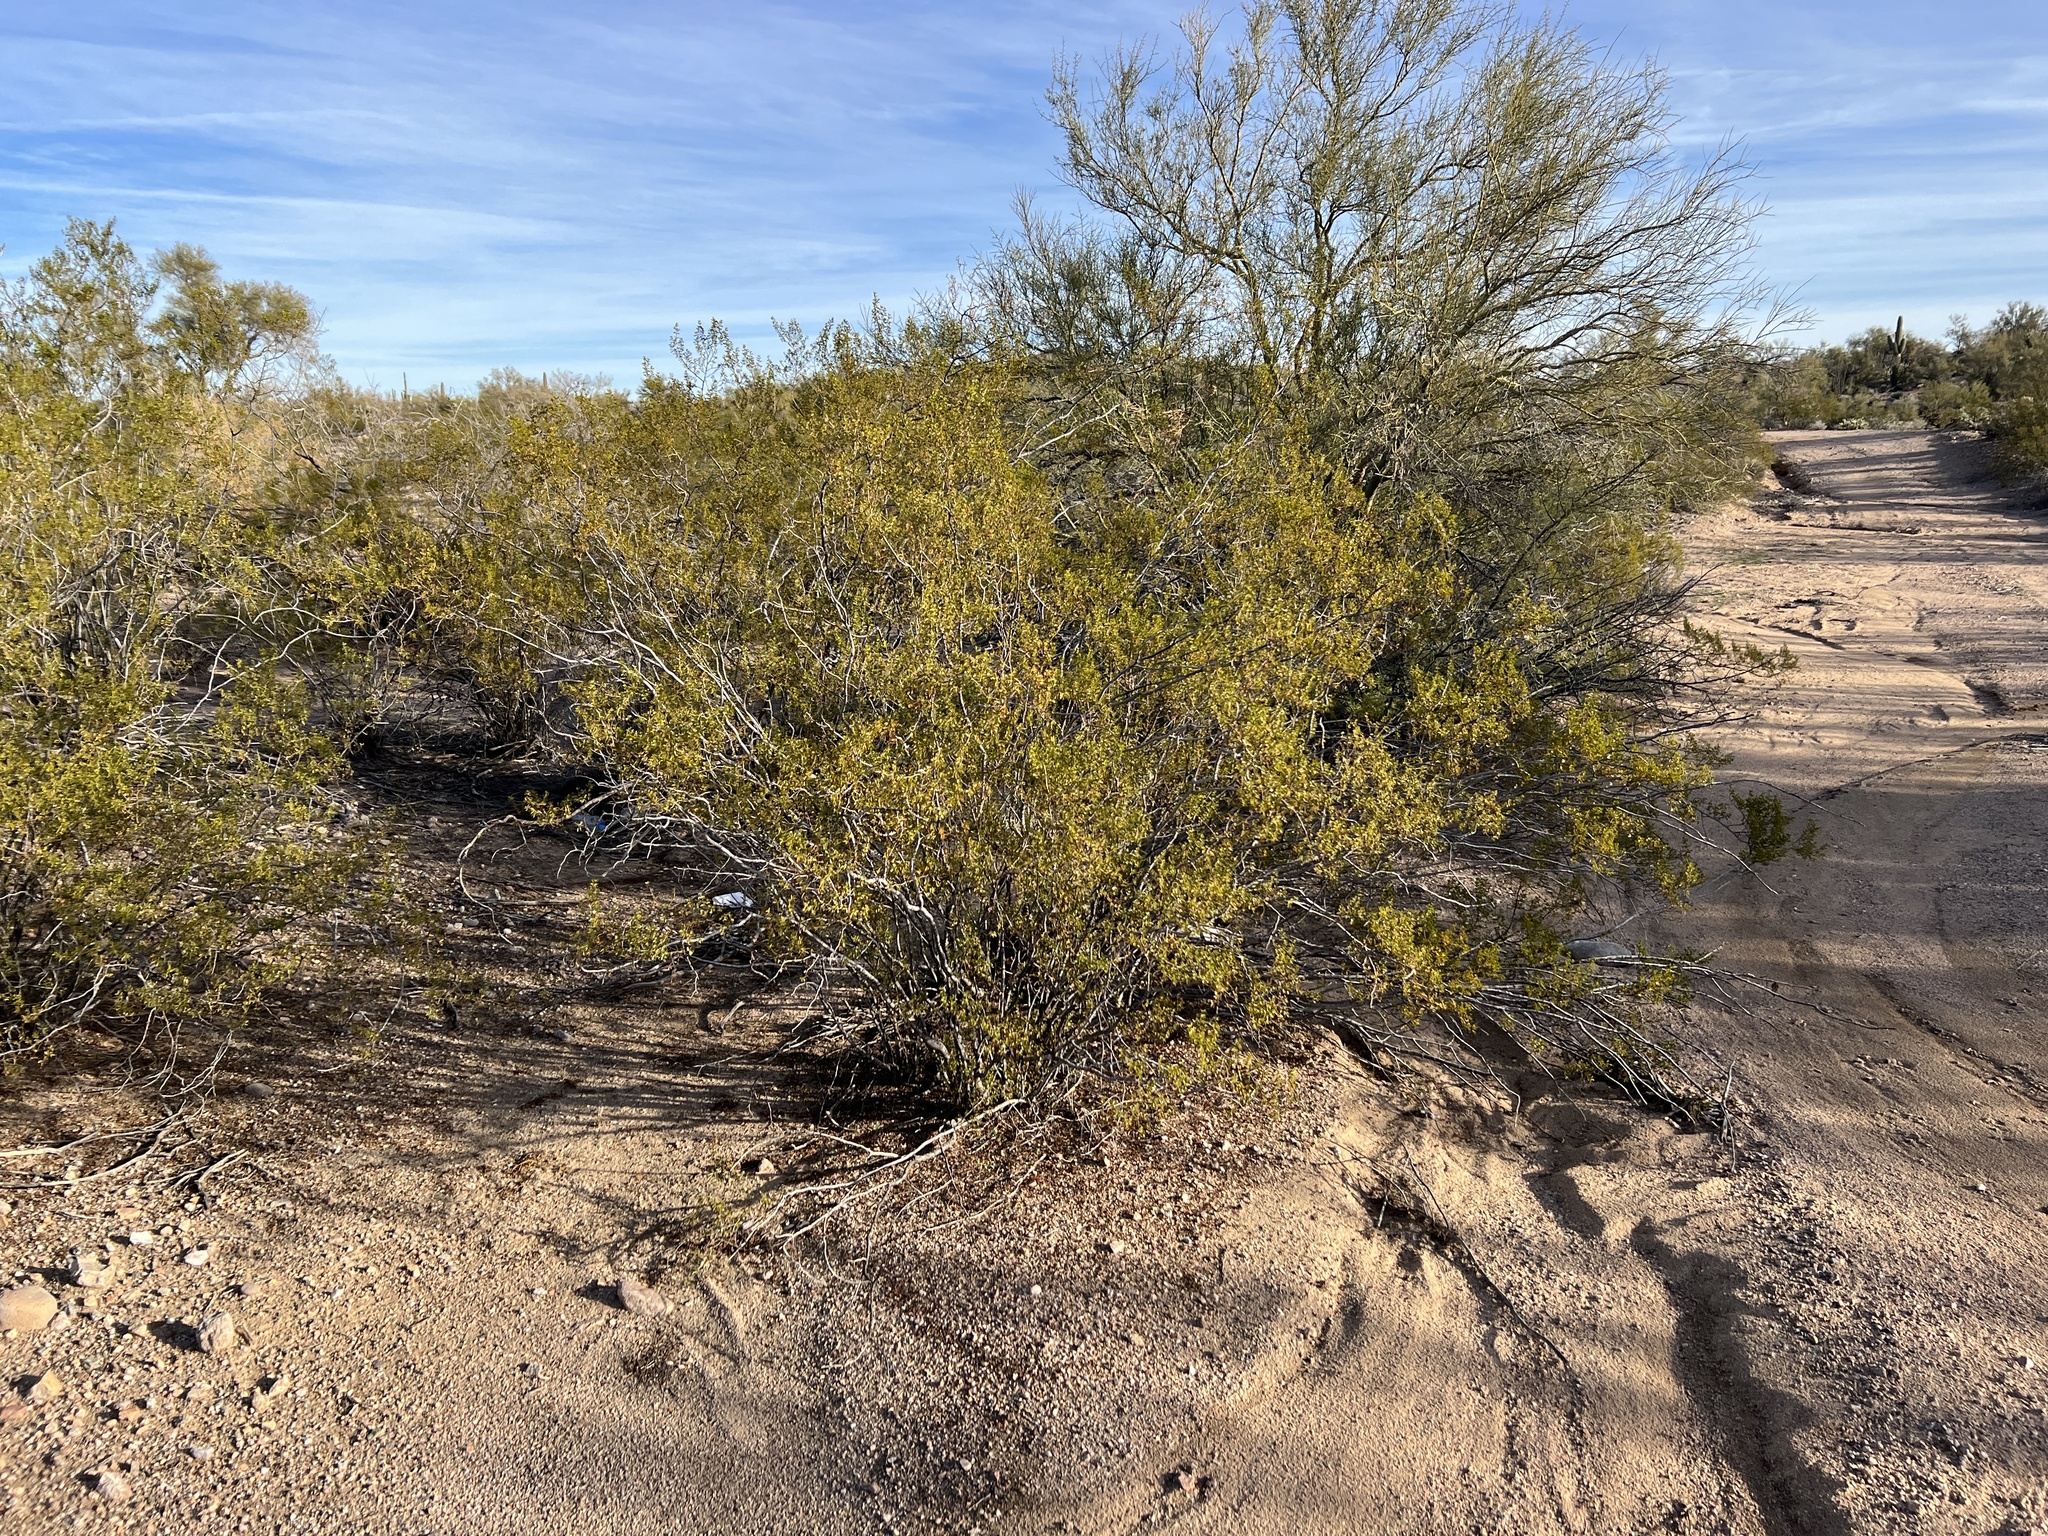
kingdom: Plantae
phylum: Tracheophyta
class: Magnoliopsida
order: Zygophyllales
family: Zygophyllaceae
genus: Larrea
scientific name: Larrea tridentata
